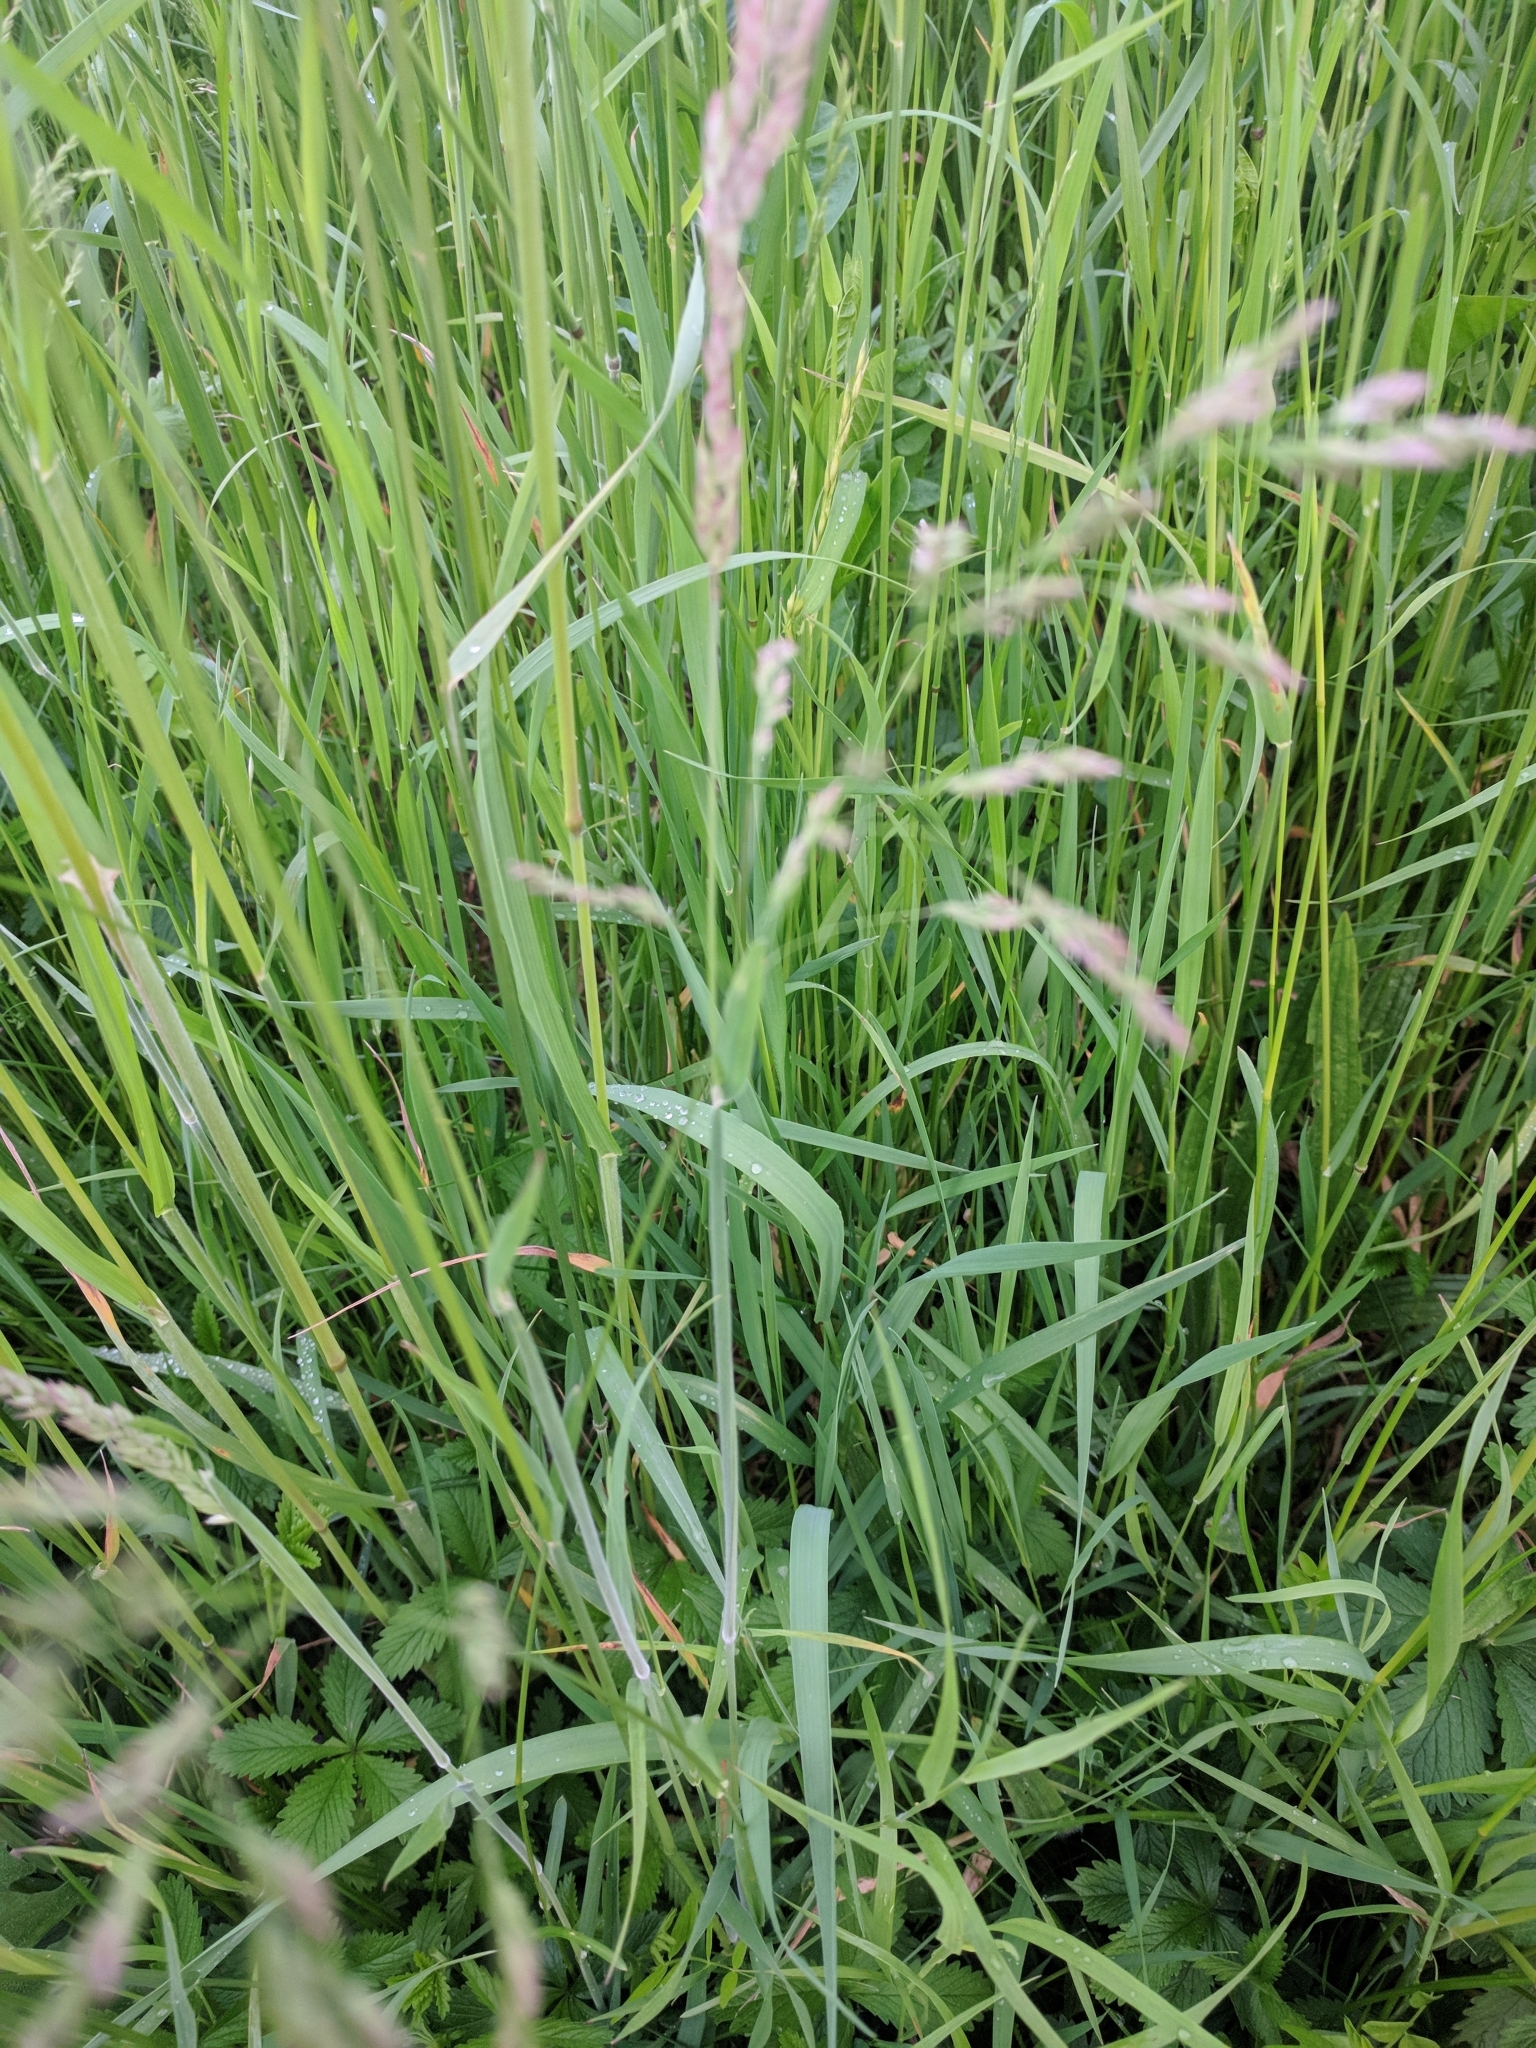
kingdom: Plantae
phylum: Tracheophyta
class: Liliopsida
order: Poales
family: Poaceae
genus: Holcus
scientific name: Holcus lanatus
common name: Yorkshire-fog
